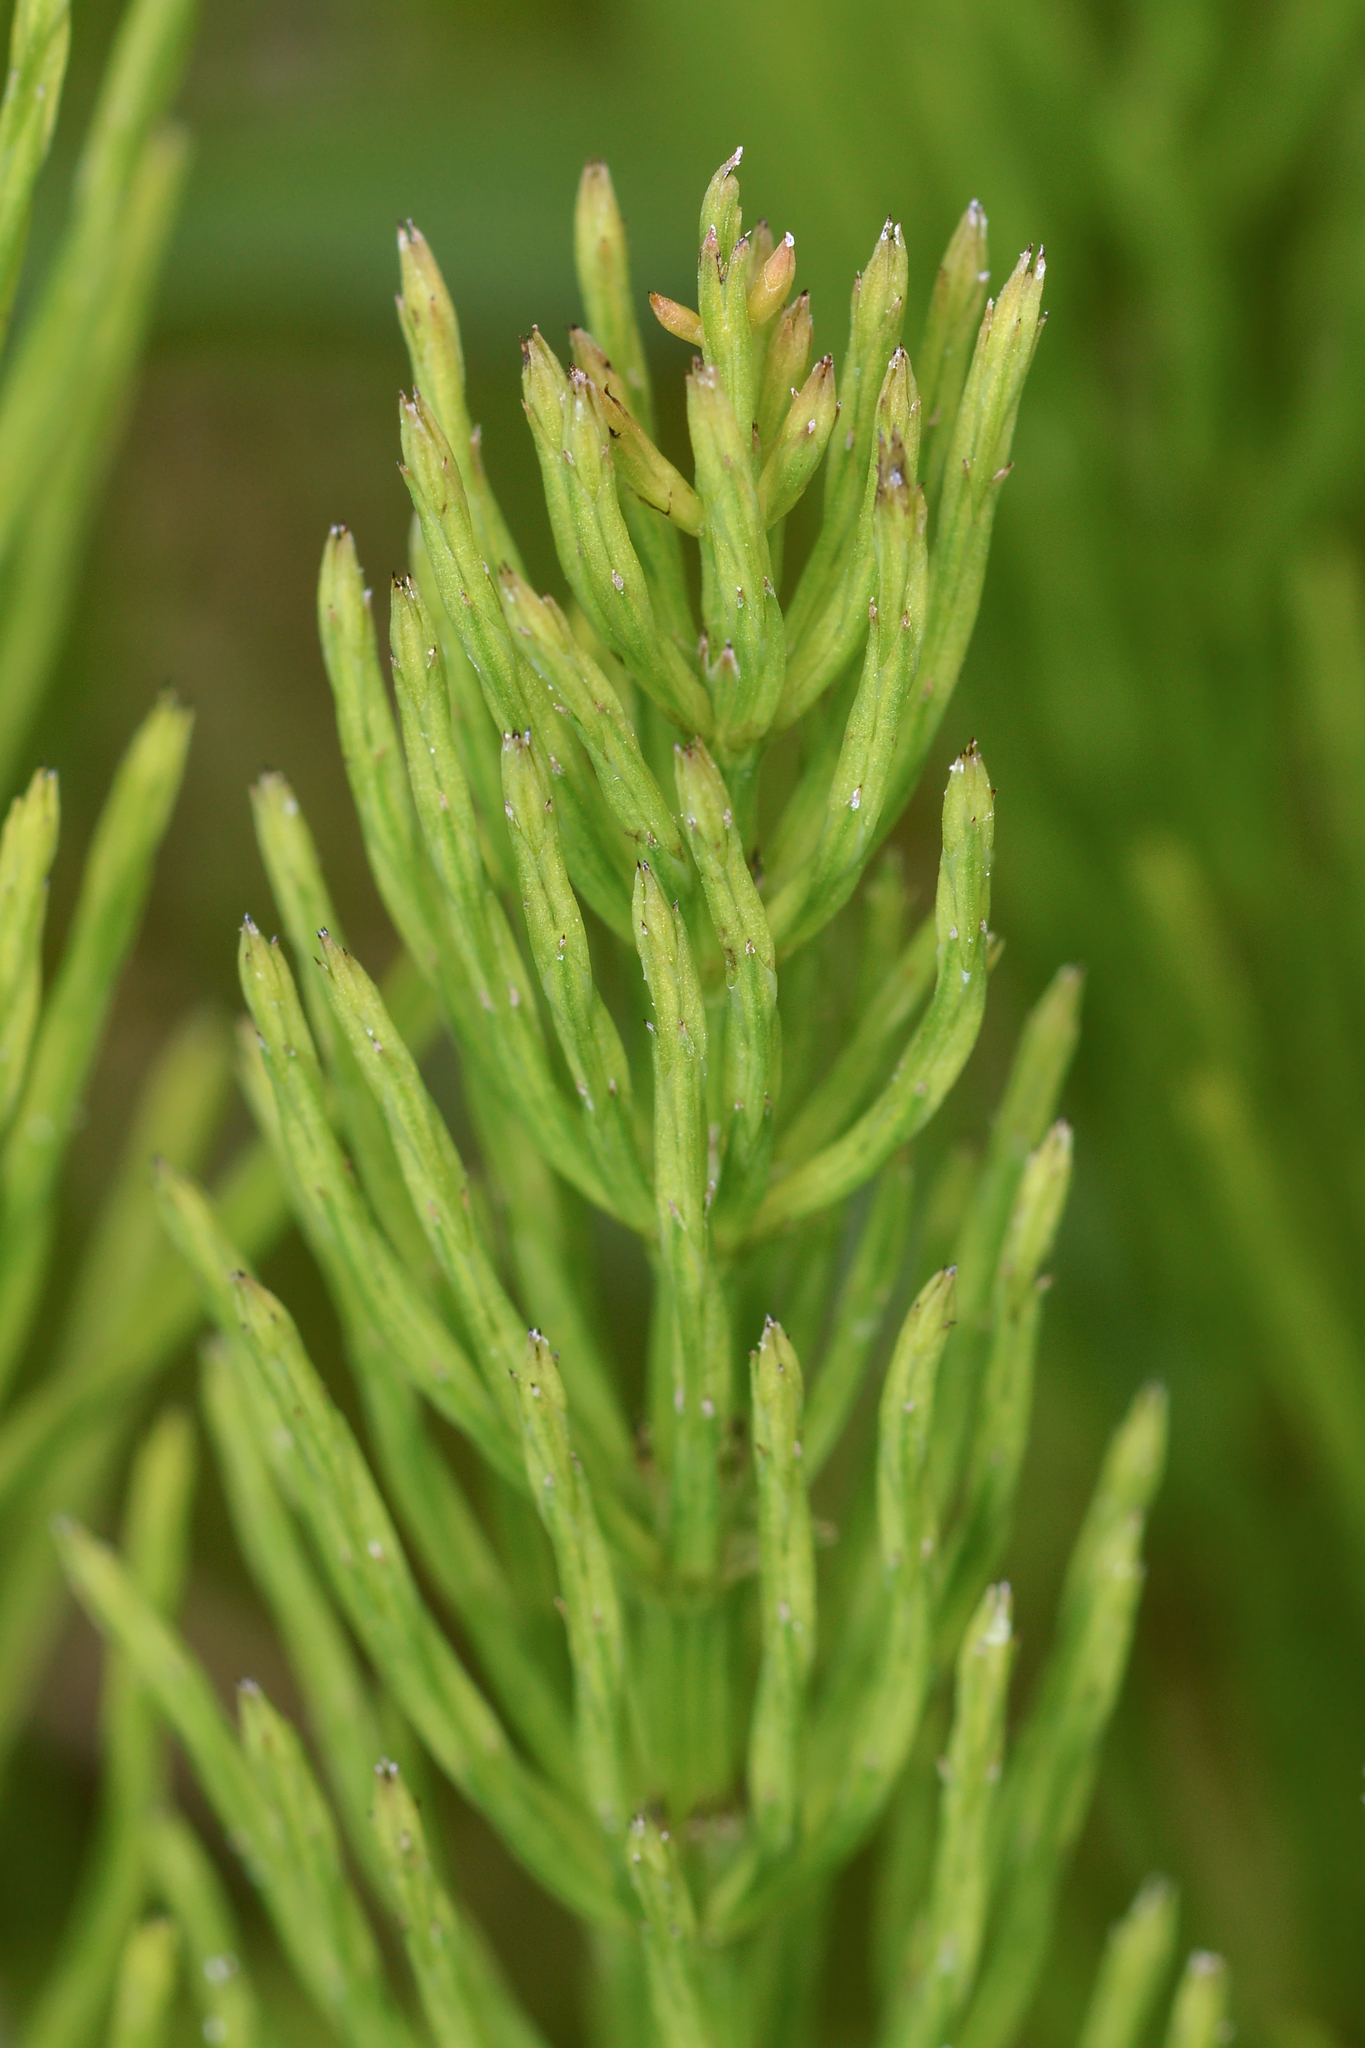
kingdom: Plantae
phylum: Tracheophyta
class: Polypodiopsida
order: Equisetales
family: Equisetaceae
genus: Equisetum
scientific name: Equisetum arvense
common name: Field horsetail
